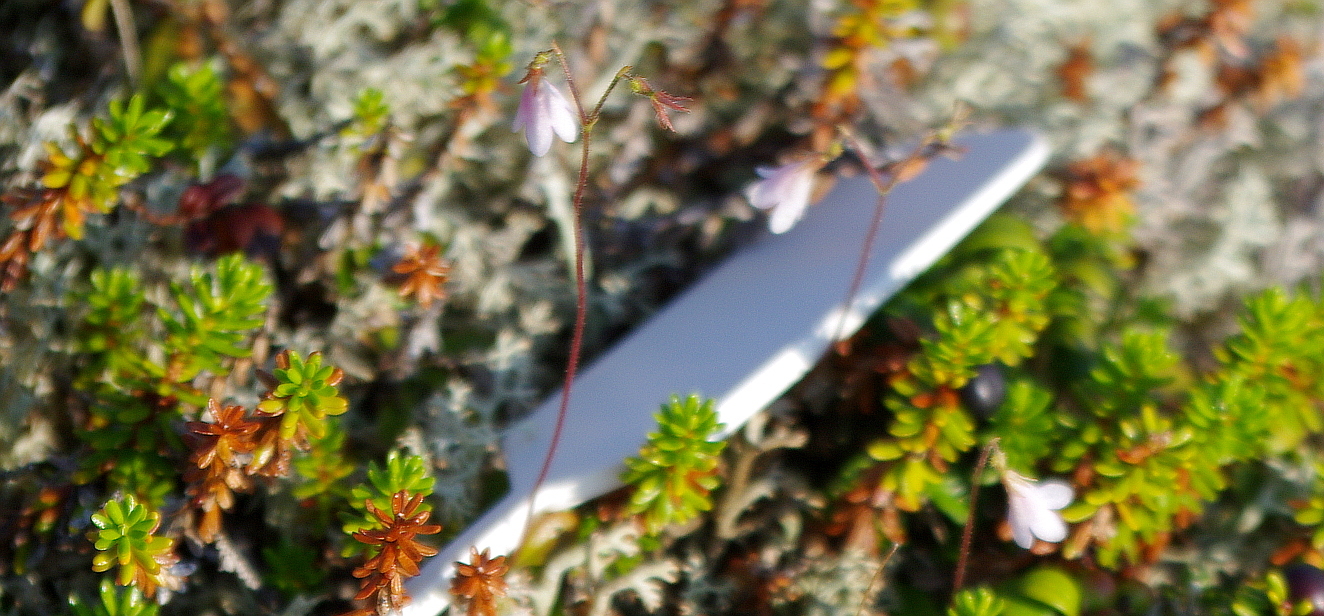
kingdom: Plantae
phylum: Tracheophyta
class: Magnoliopsida
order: Dipsacales
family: Caprifoliaceae
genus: Linnaea
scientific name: Linnaea borealis
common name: Twinflower
